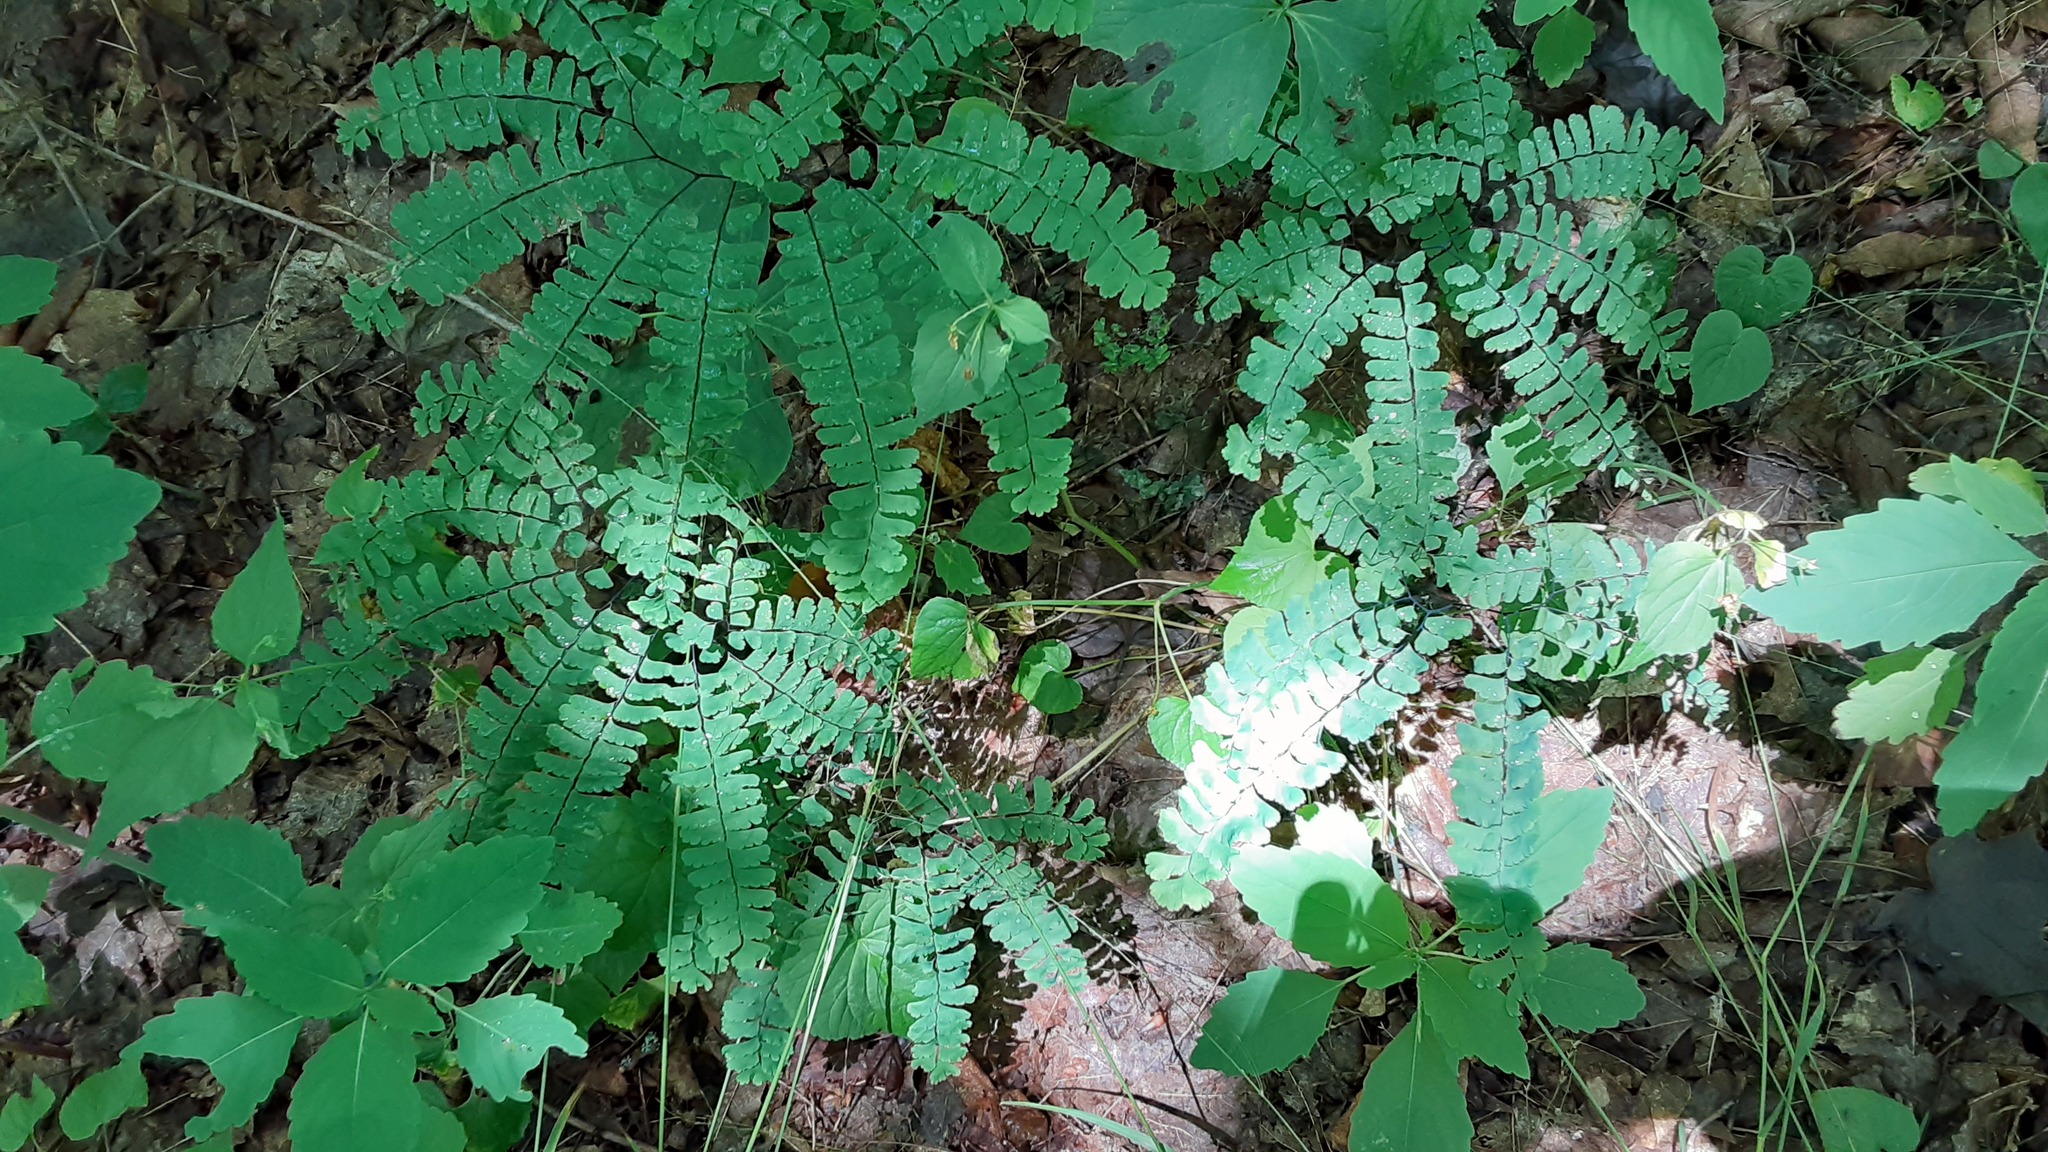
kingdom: Plantae
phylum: Tracheophyta
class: Polypodiopsida
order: Polypodiales
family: Pteridaceae
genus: Adiantum
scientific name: Adiantum pedatum
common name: Five-finger fern
